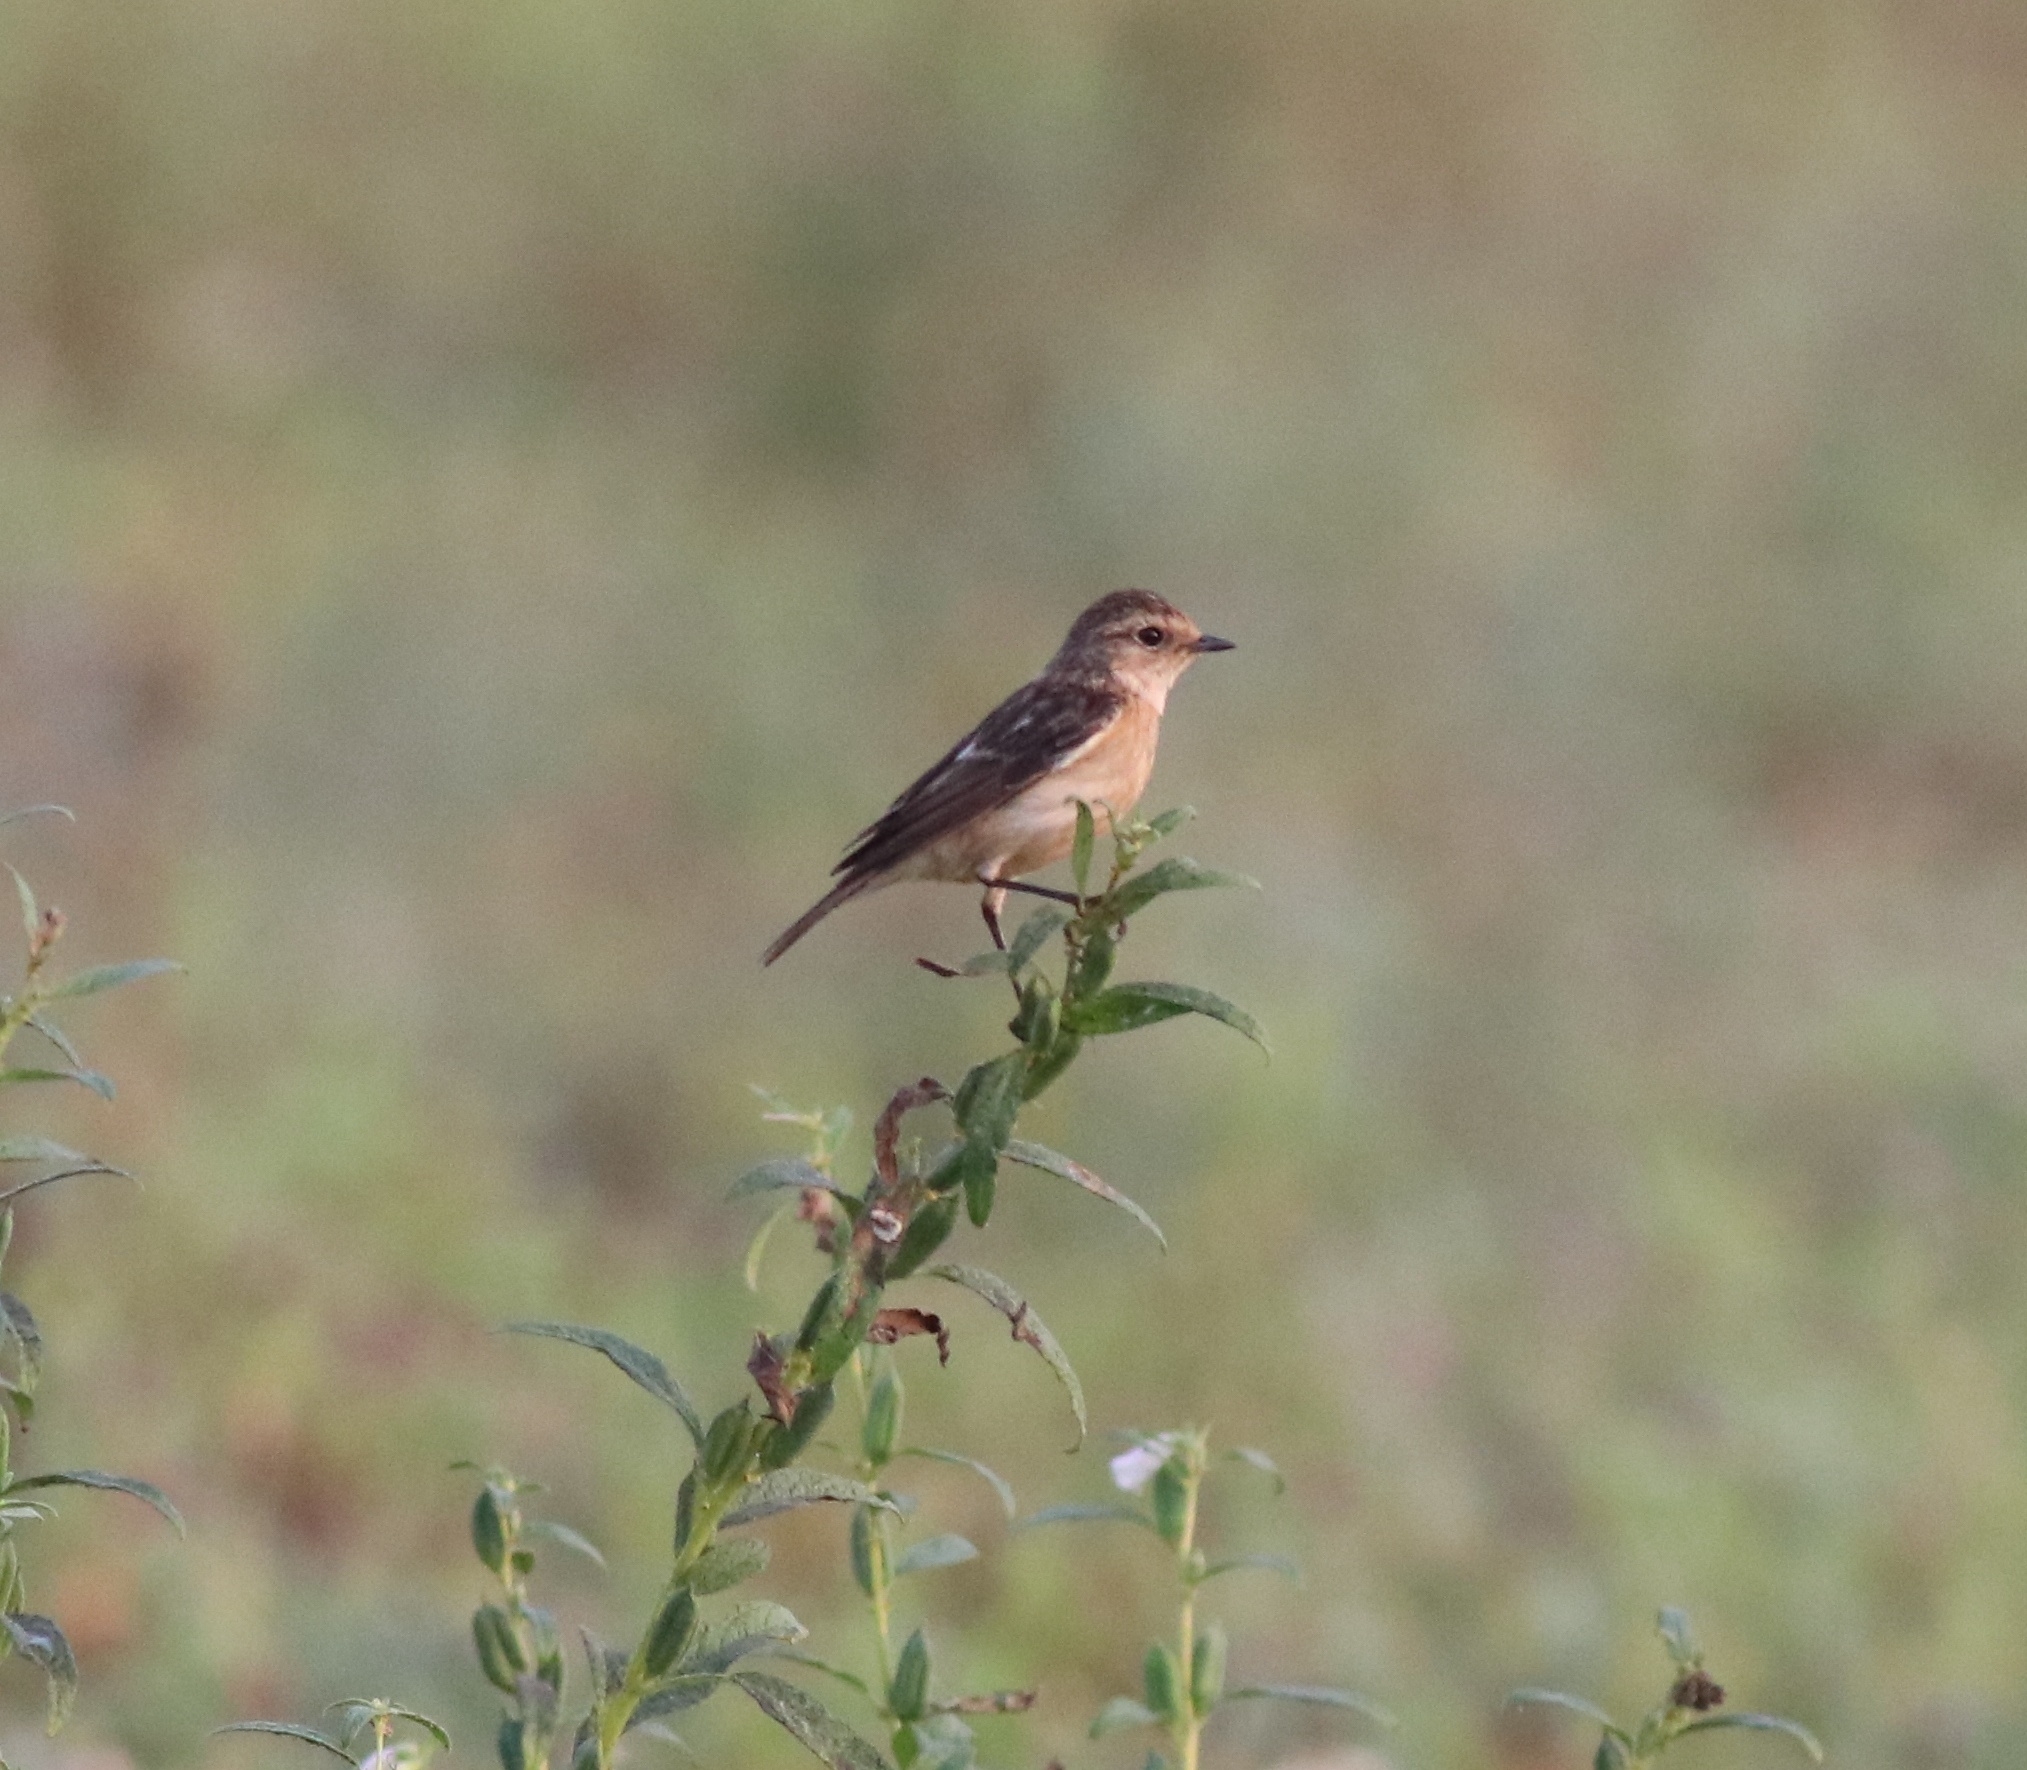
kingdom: Animalia
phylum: Chordata
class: Aves
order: Passeriformes
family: Muscicapidae
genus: Saxicola
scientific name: Saxicola maurus
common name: Siberian stonechat
